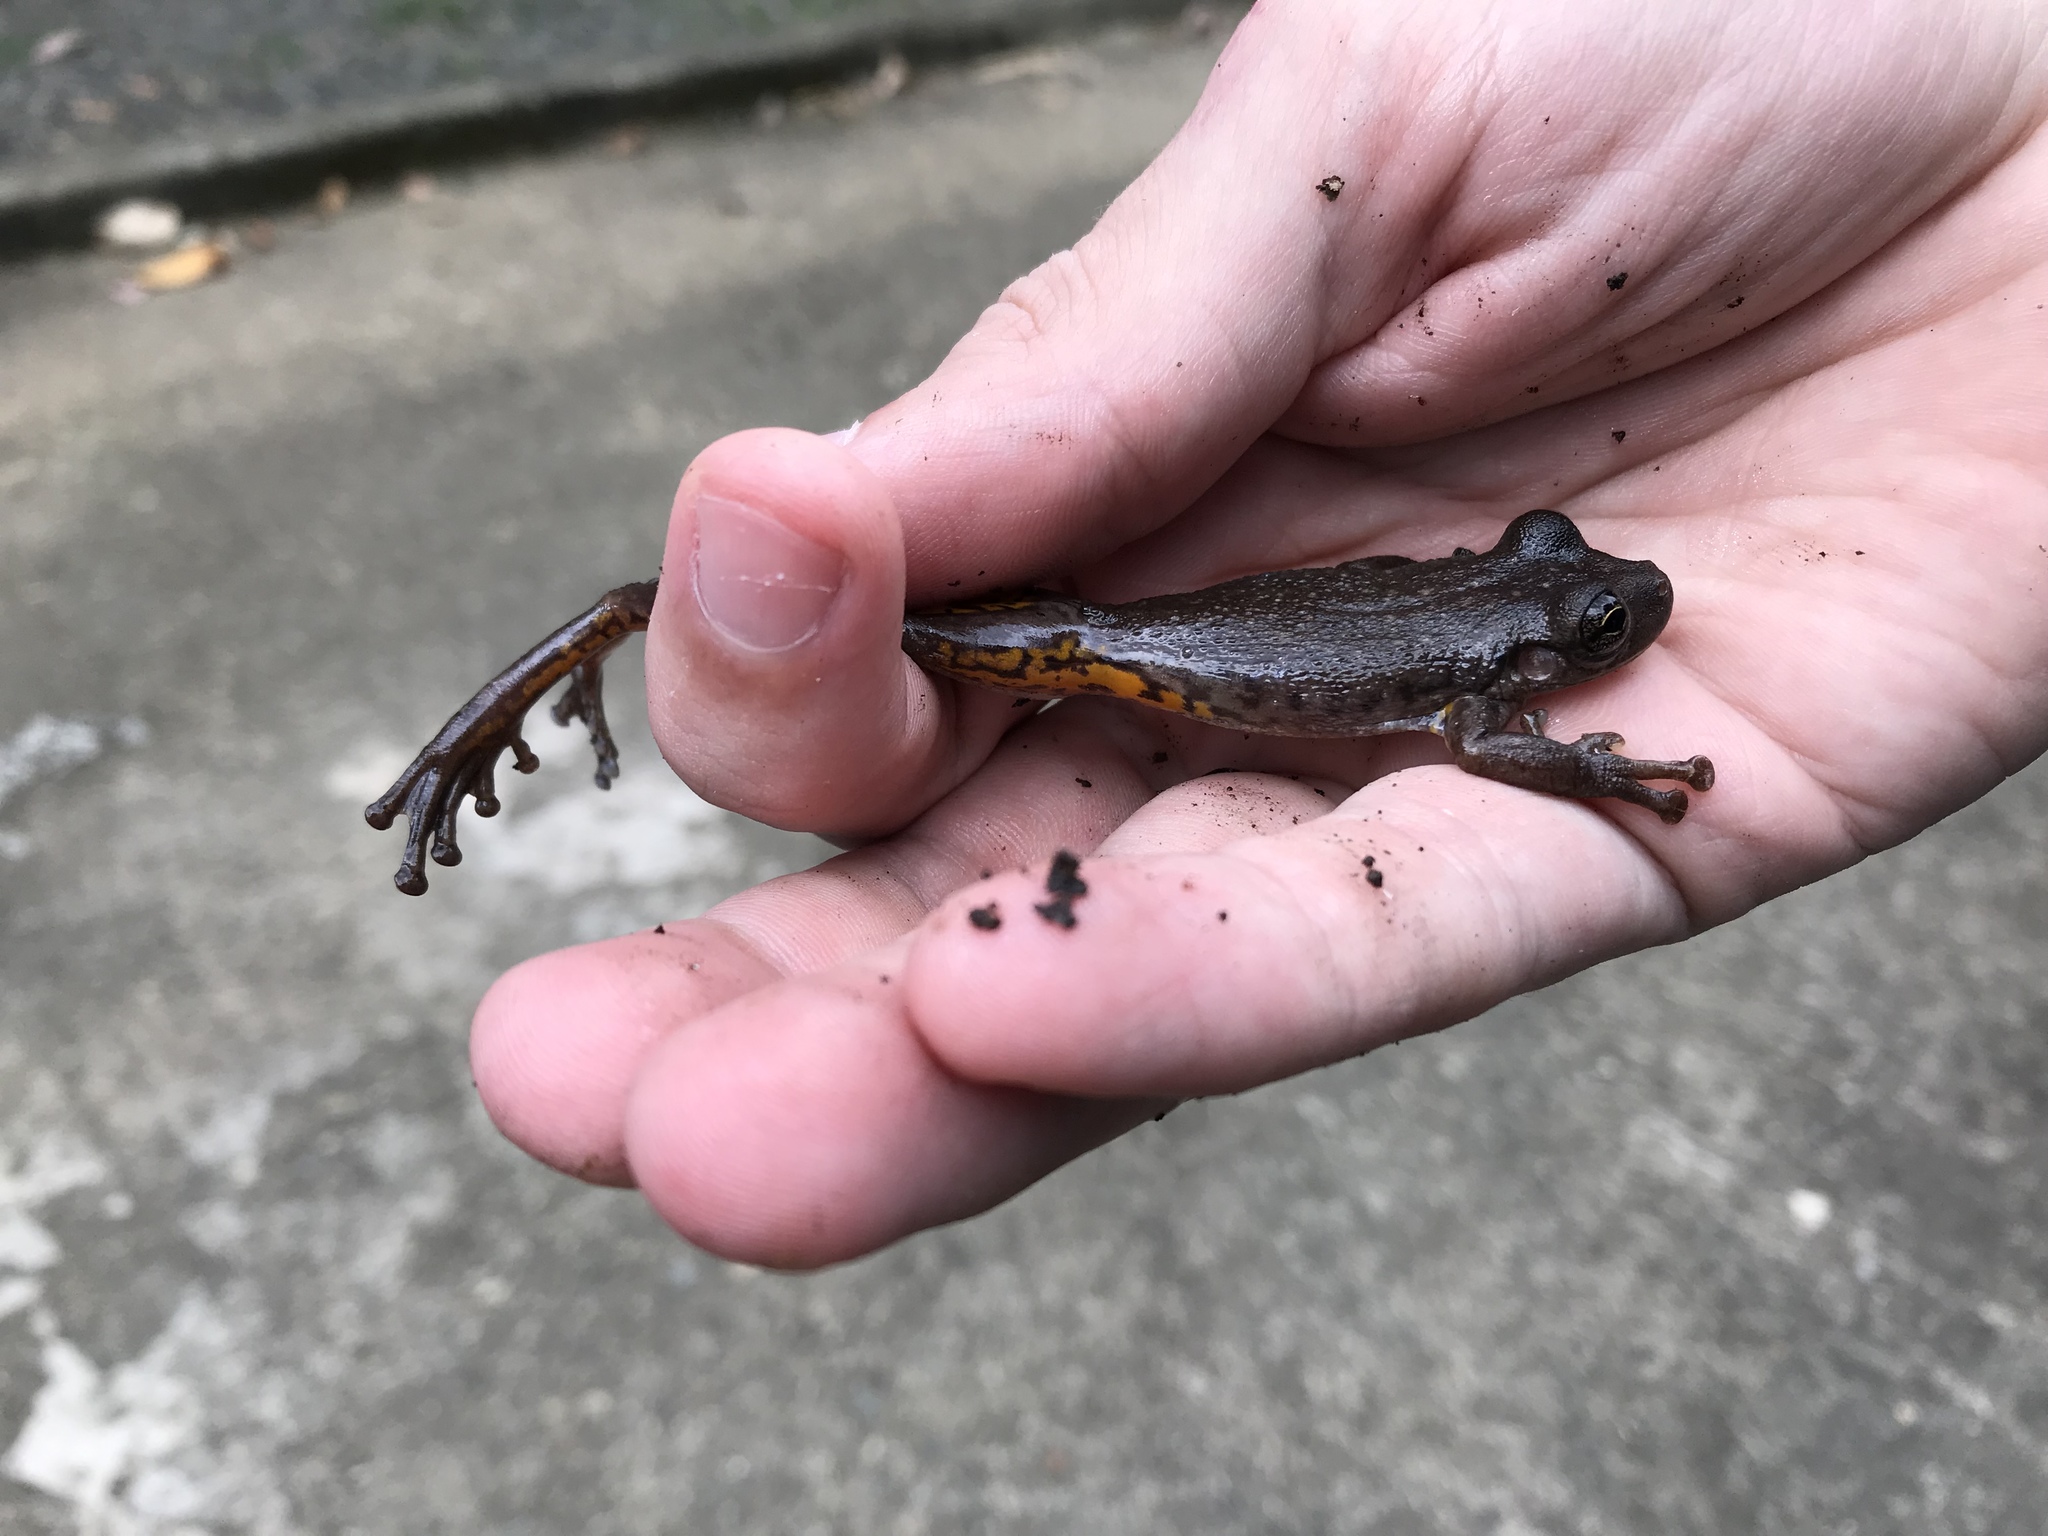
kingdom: Animalia
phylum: Chordata
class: Amphibia
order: Anura
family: Hylidae
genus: Scinax
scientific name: Scinax ruber
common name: Red snouted treefrog
